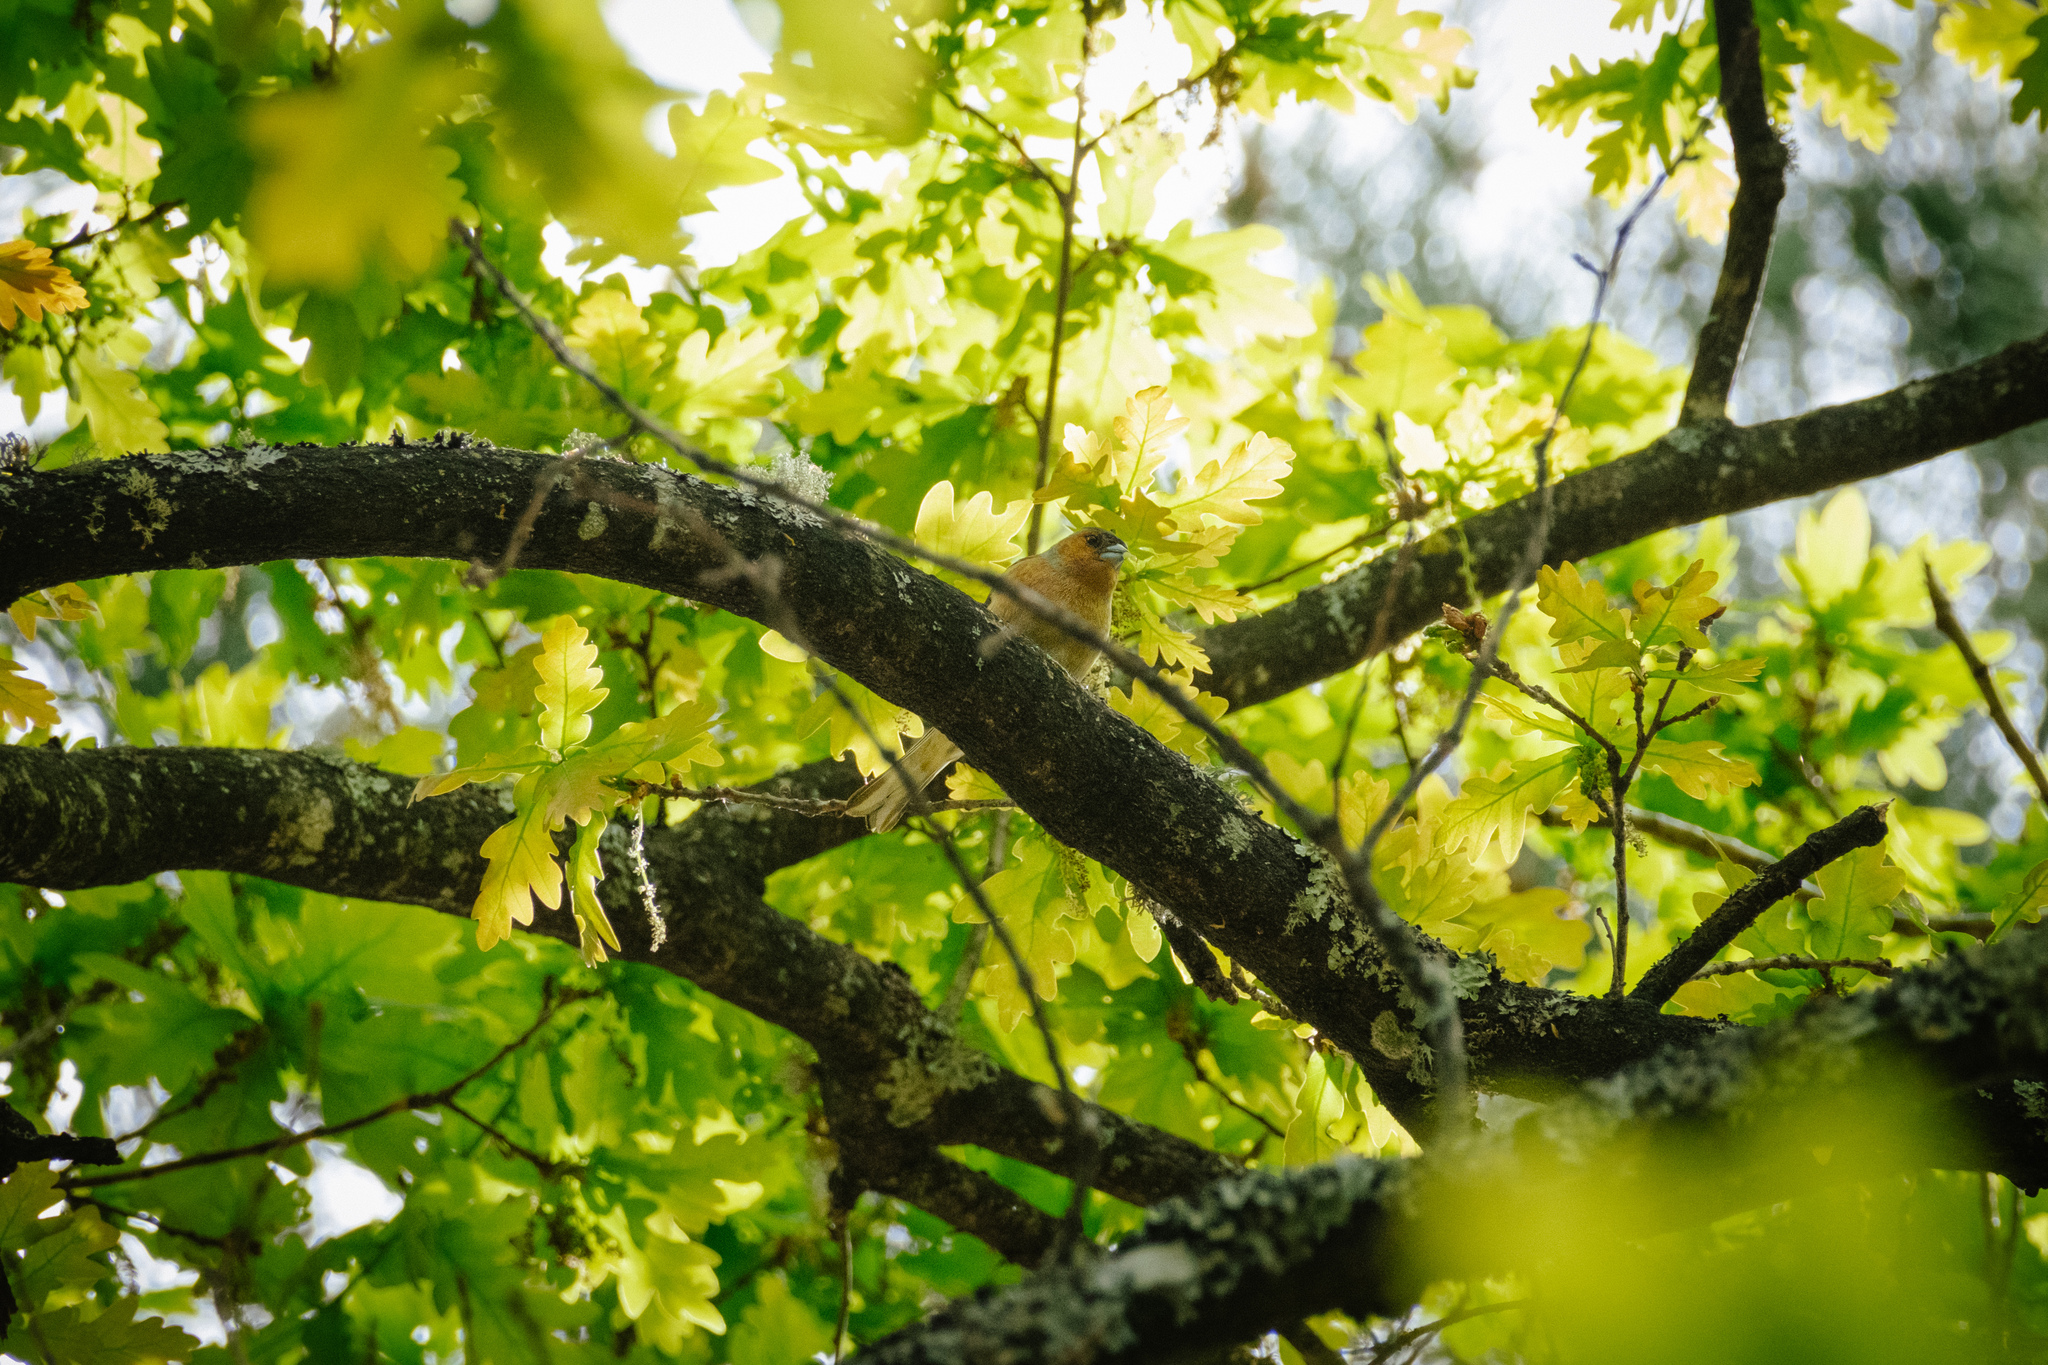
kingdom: Animalia
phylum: Chordata
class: Aves
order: Passeriformes
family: Fringillidae
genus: Fringilla
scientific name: Fringilla coelebs
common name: Common chaffinch
